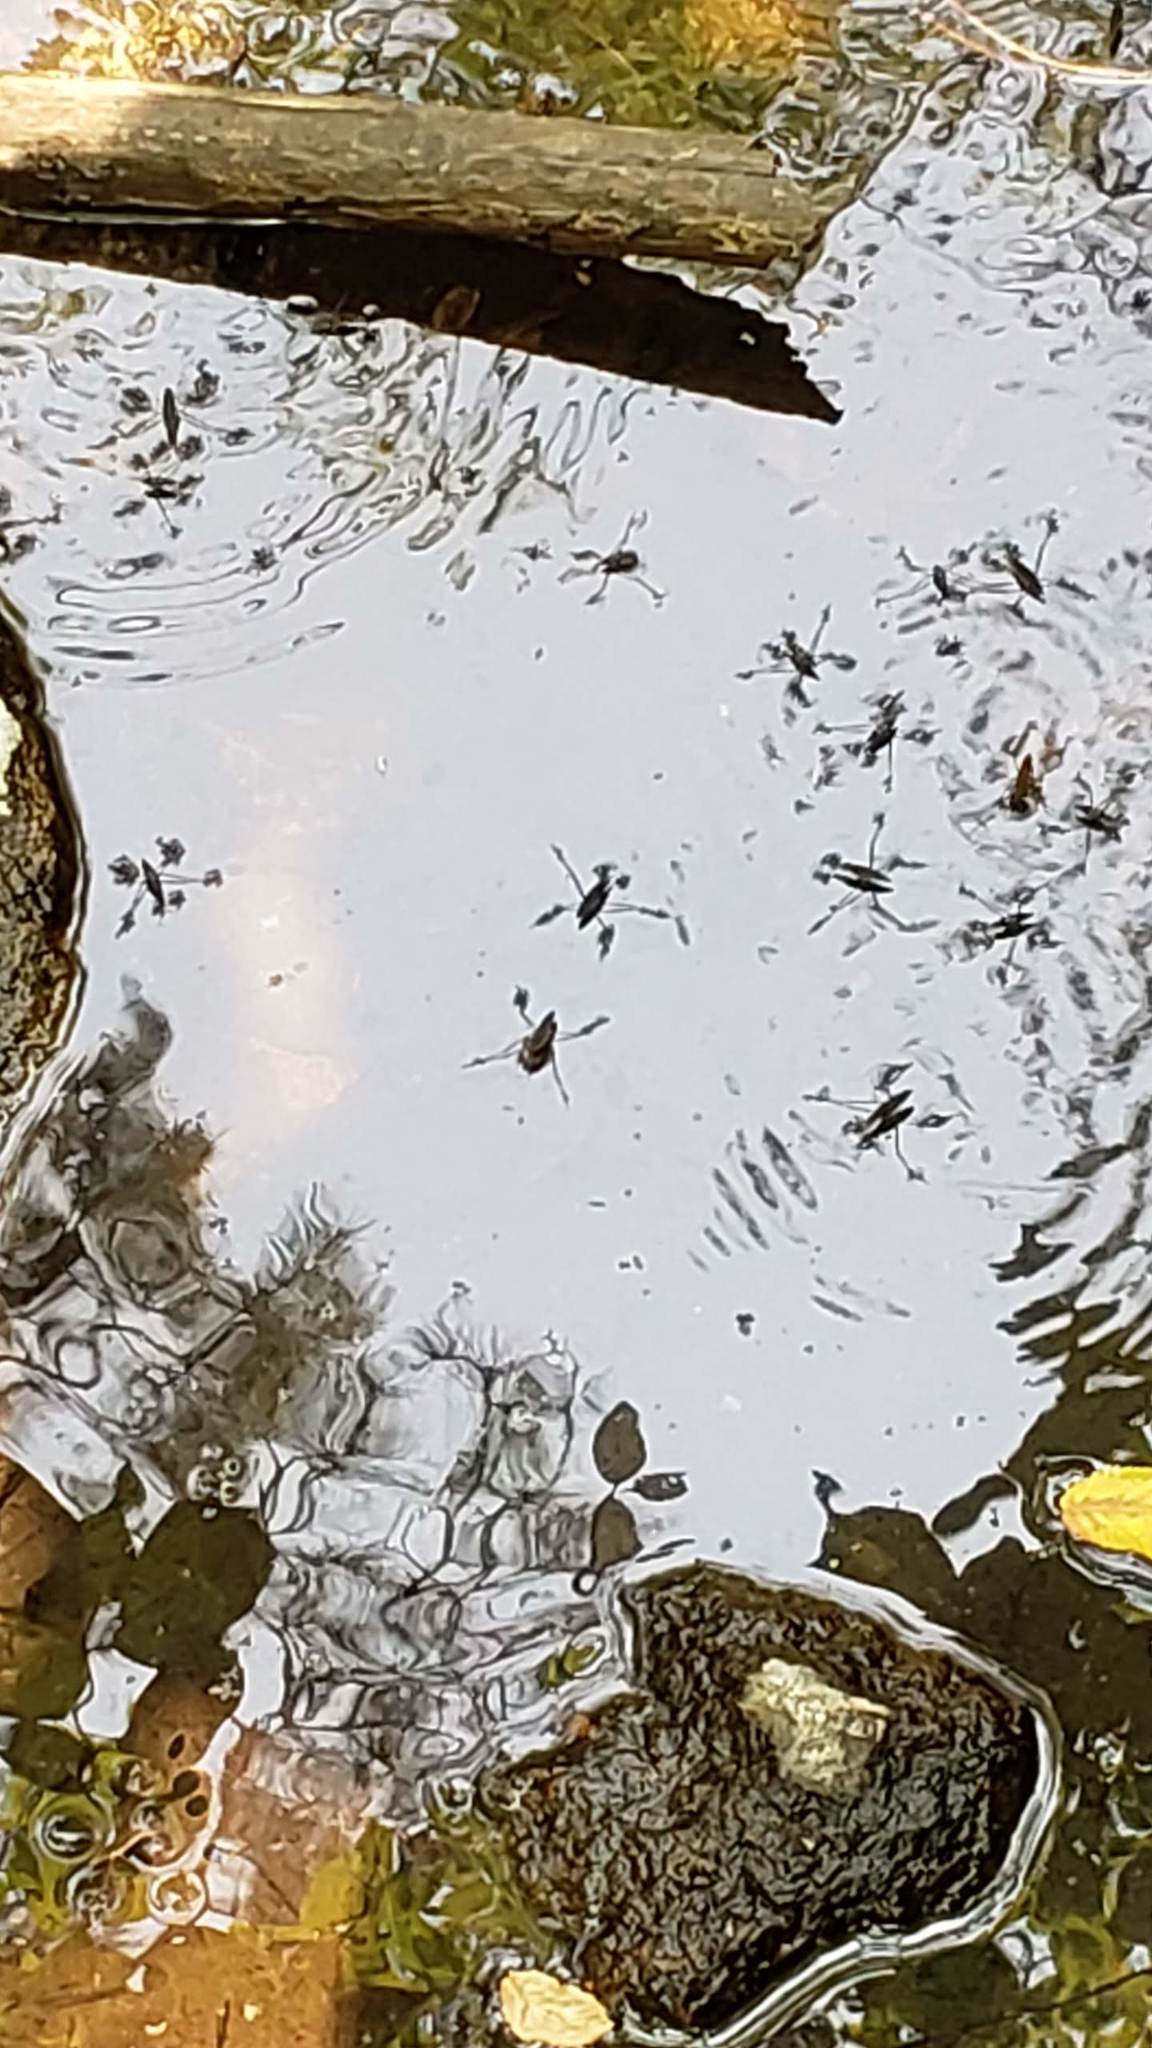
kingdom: Animalia
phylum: Arthropoda
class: Insecta
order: Hemiptera
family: Gerridae
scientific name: Gerridae
